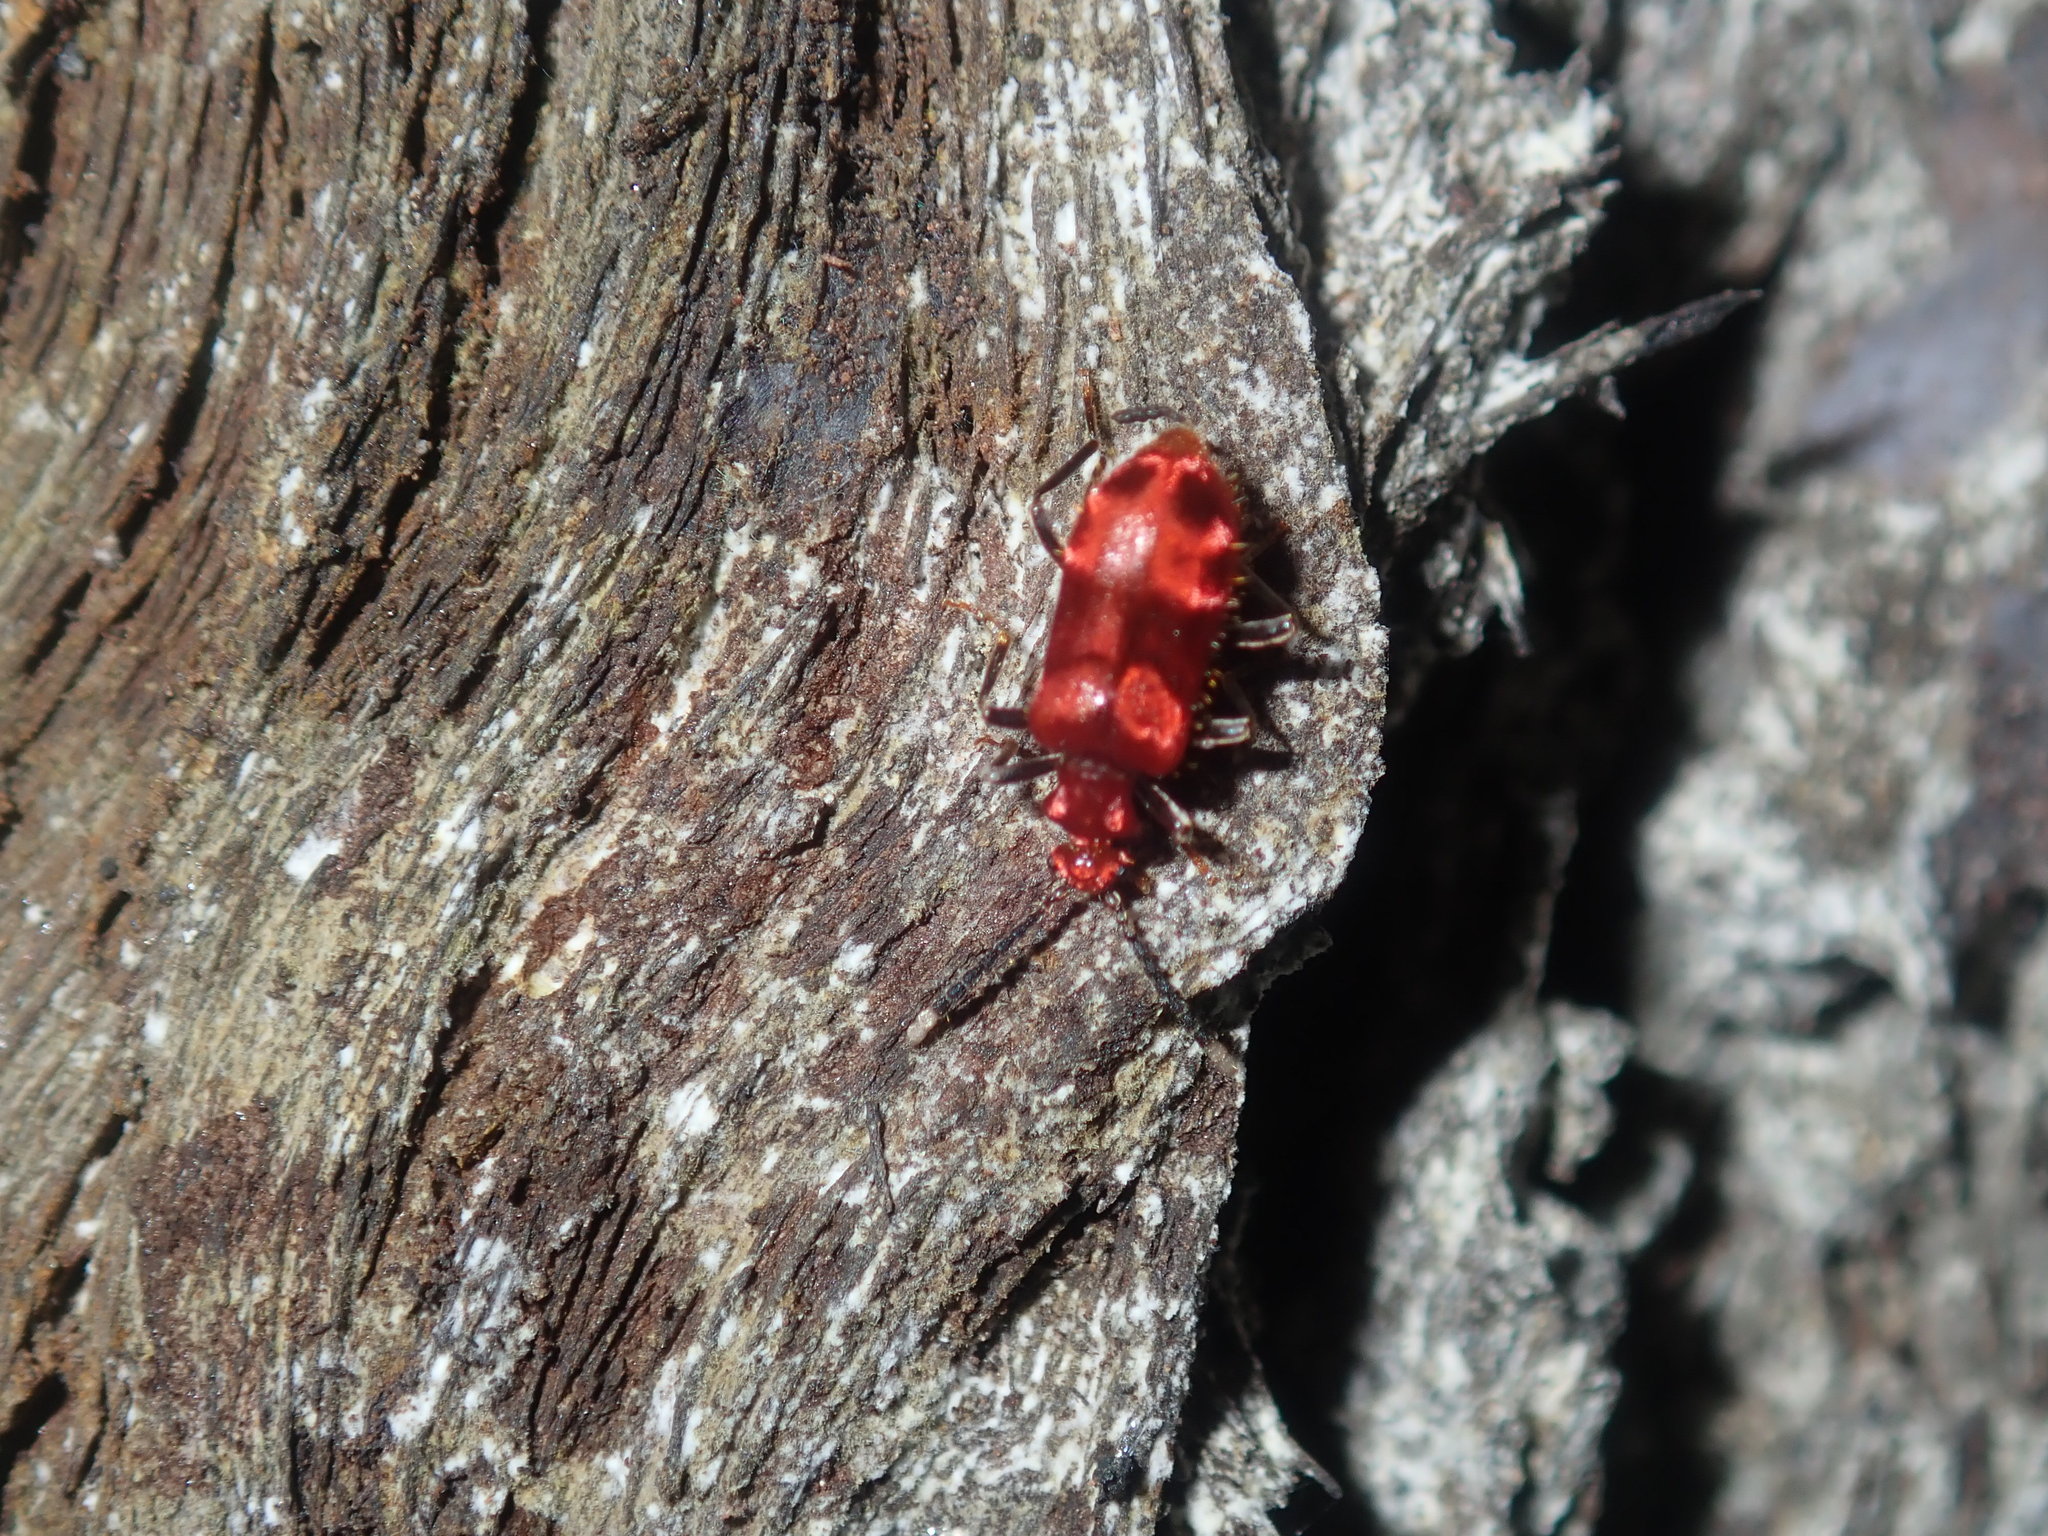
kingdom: Animalia
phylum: Arthropoda
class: Insecta
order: Coleoptera
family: Anthicidae
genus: Lemodes
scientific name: Lemodes
